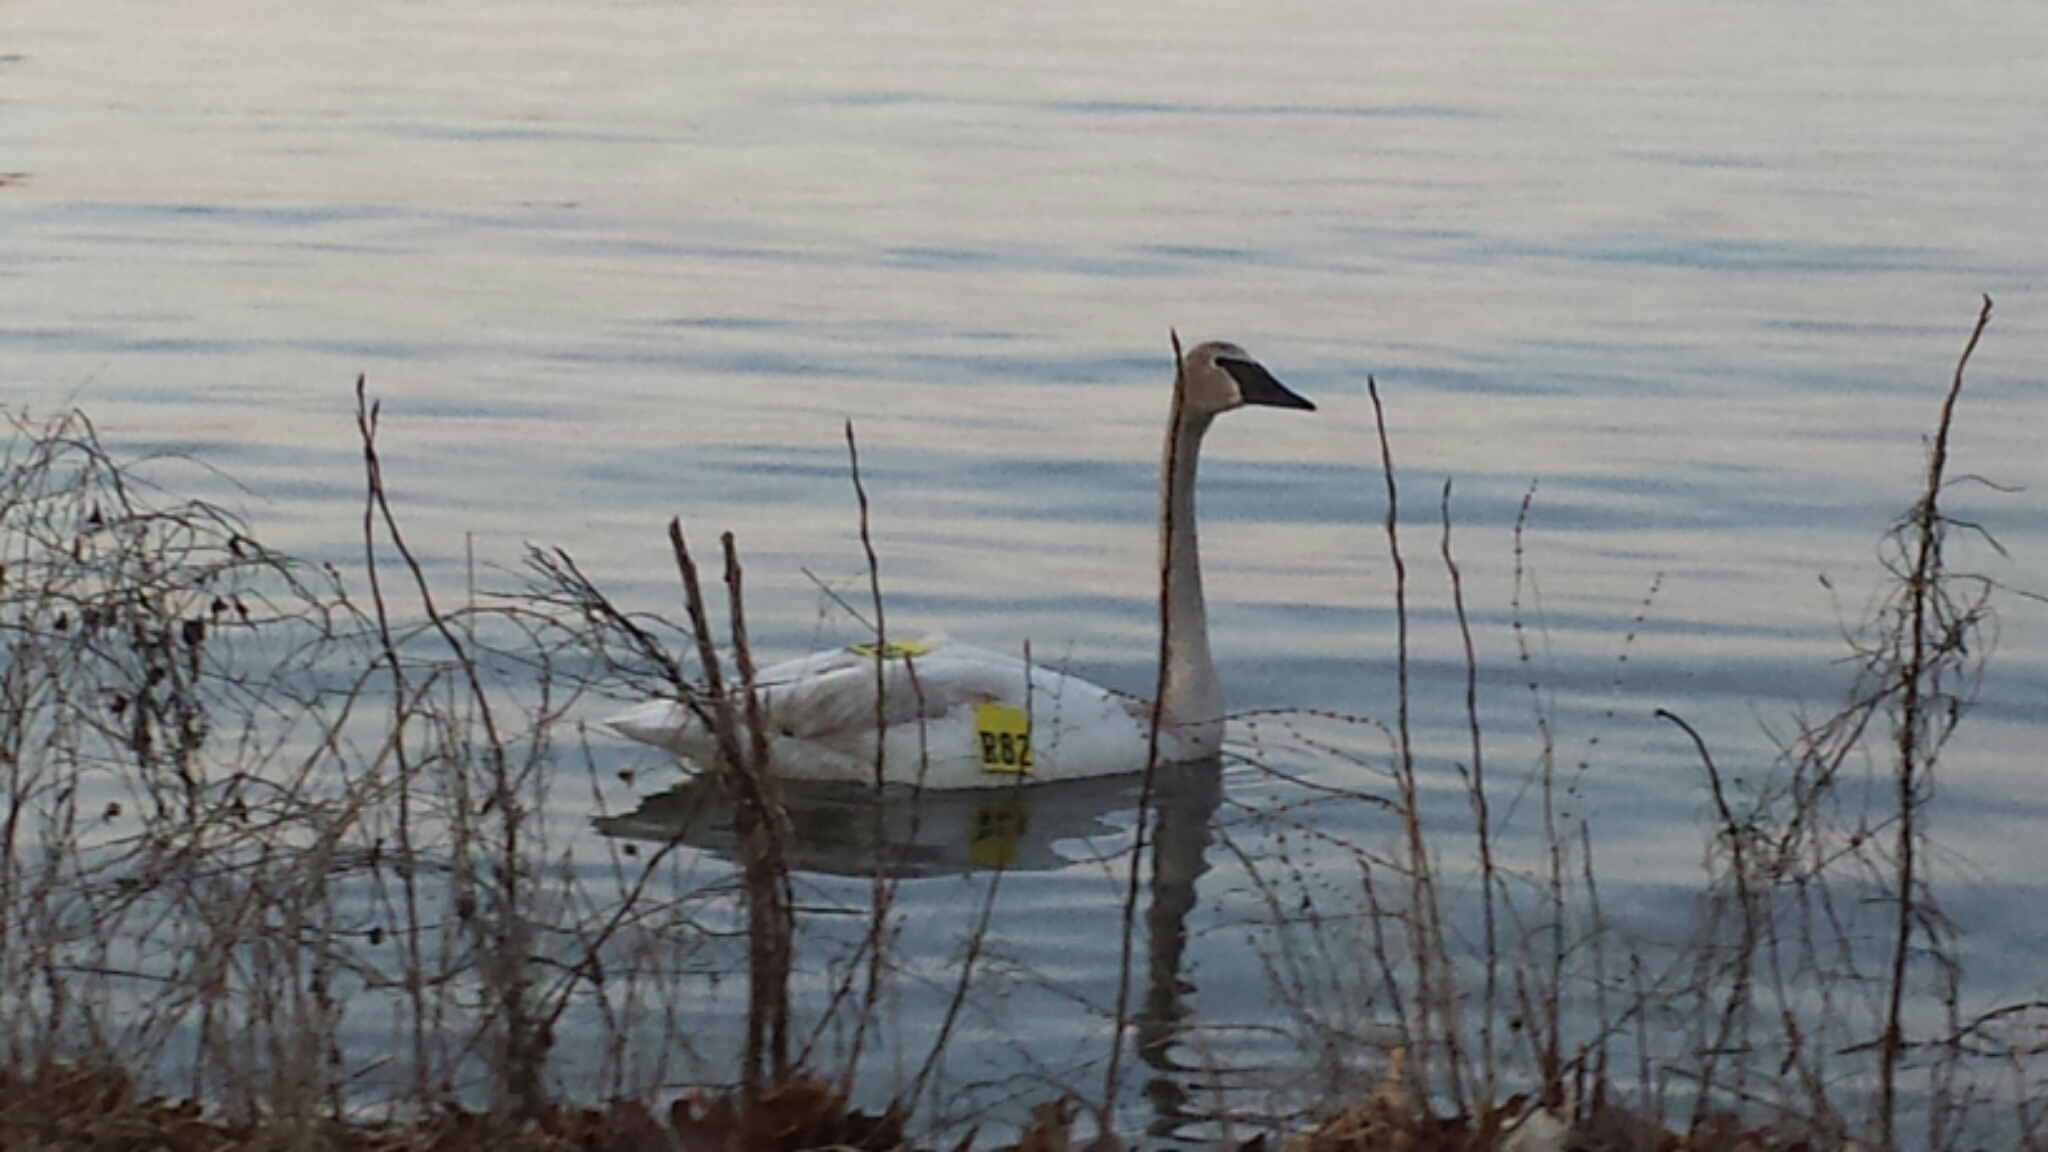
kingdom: Animalia
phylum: Chordata
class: Aves
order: Anseriformes
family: Anatidae
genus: Cygnus
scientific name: Cygnus buccinator
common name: Trumpeter swan
